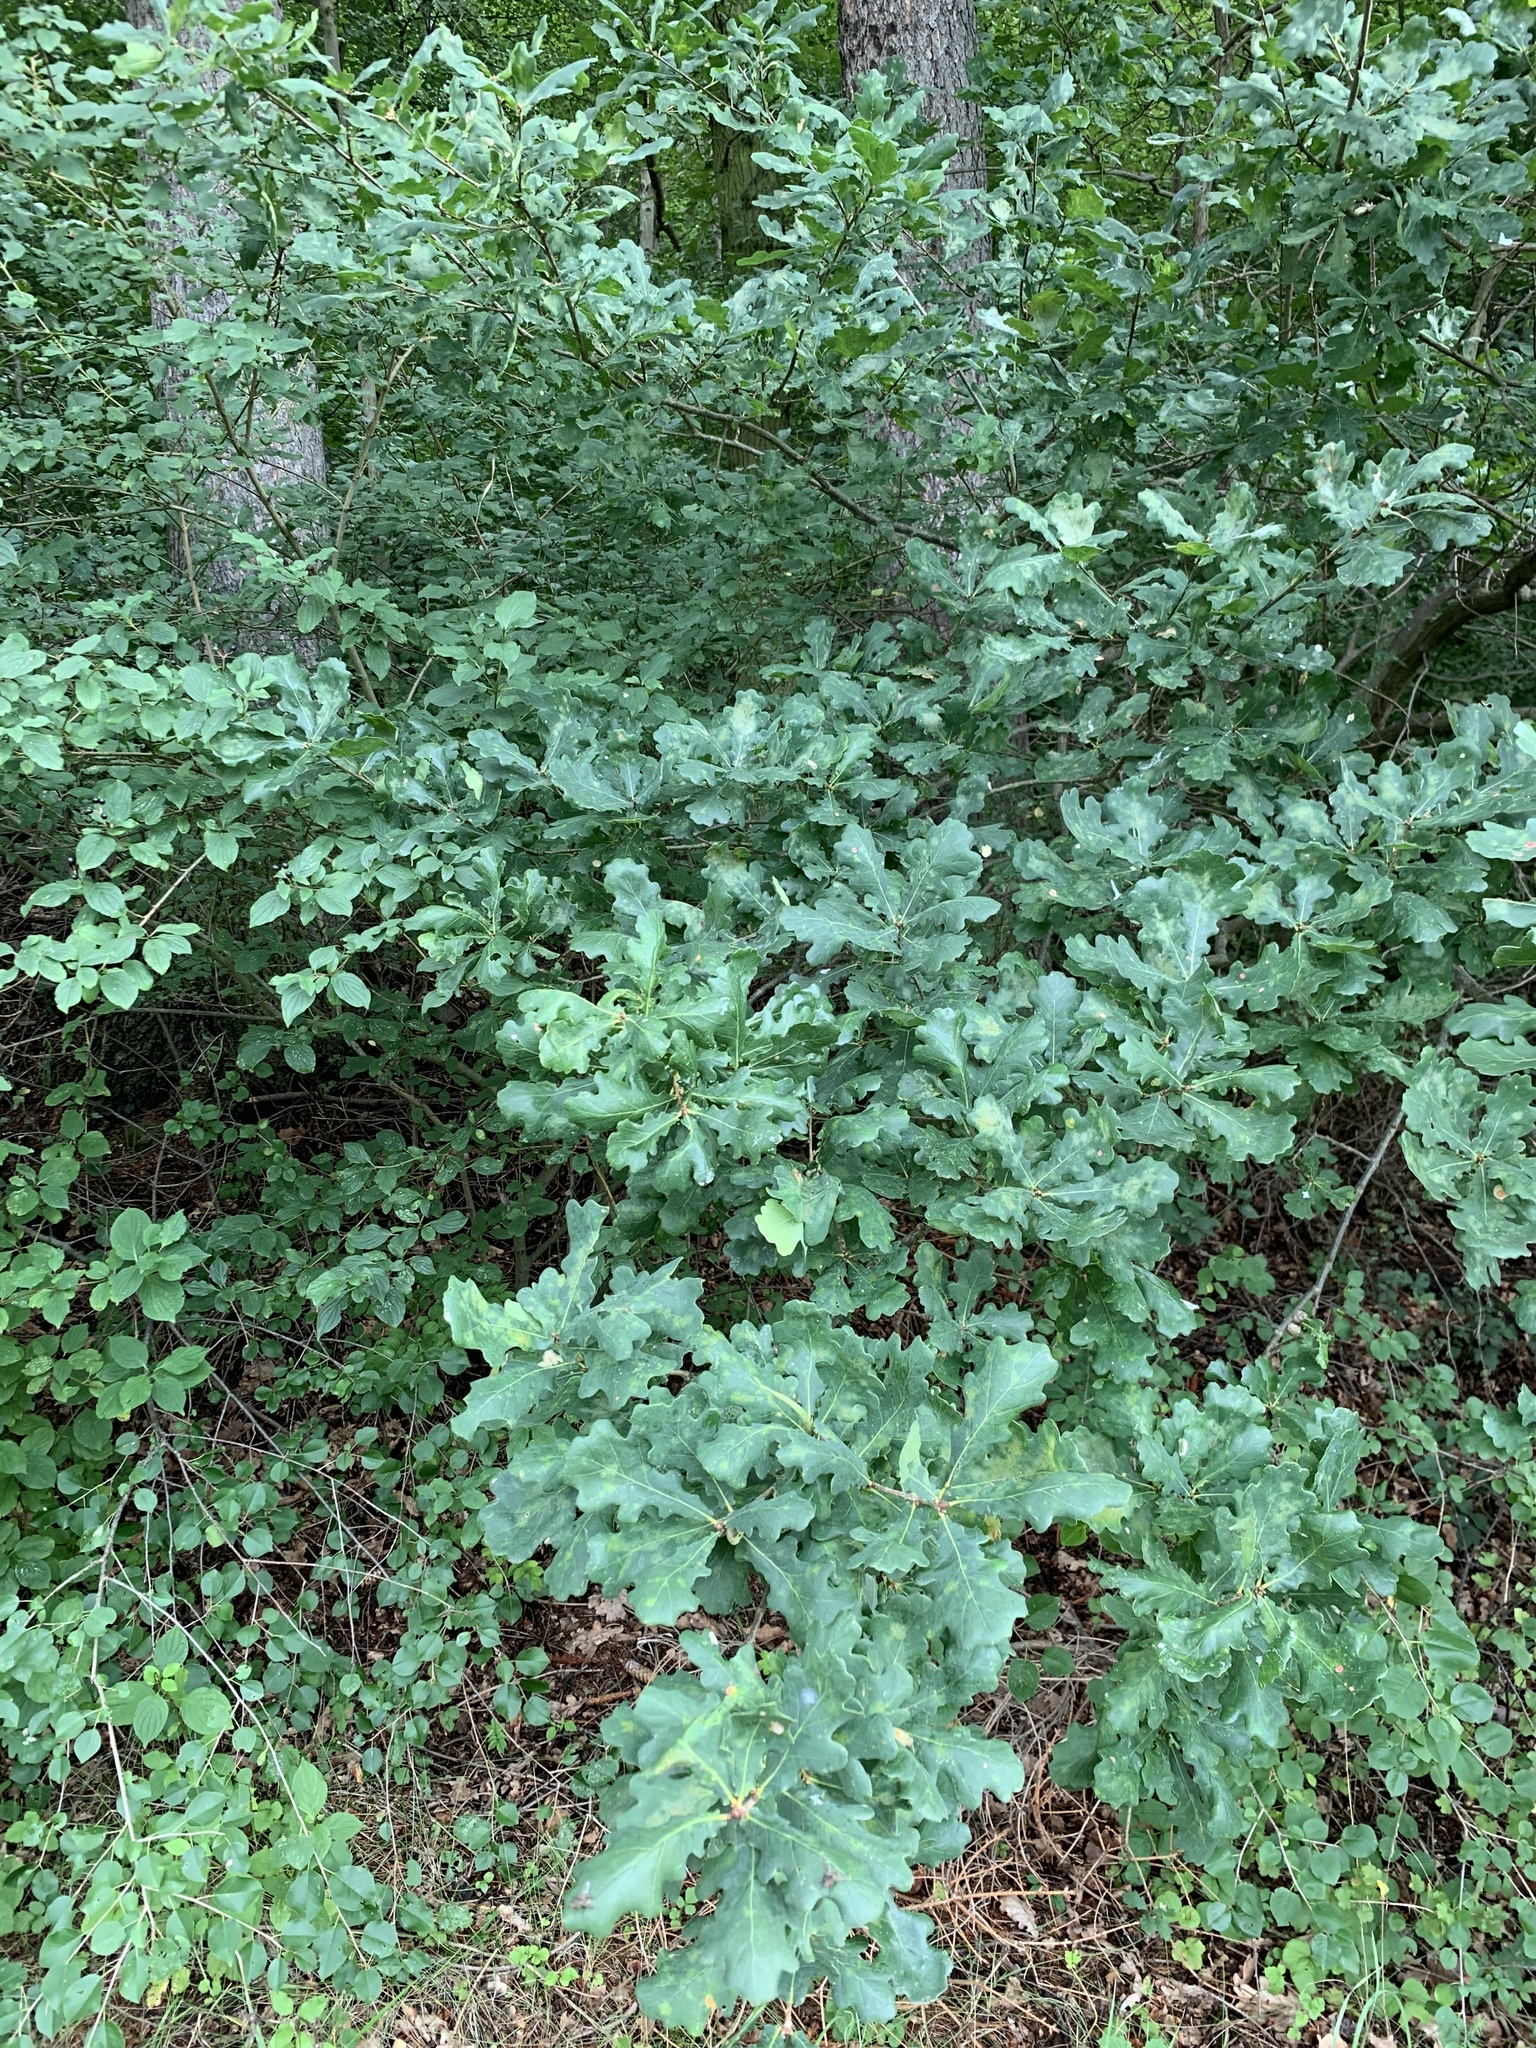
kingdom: Plantae
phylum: Tracheophyta
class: Magnoliopsida
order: Fagales
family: Fagaceae
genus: Quercus
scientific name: Quercus robur
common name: Pedunculate oak
